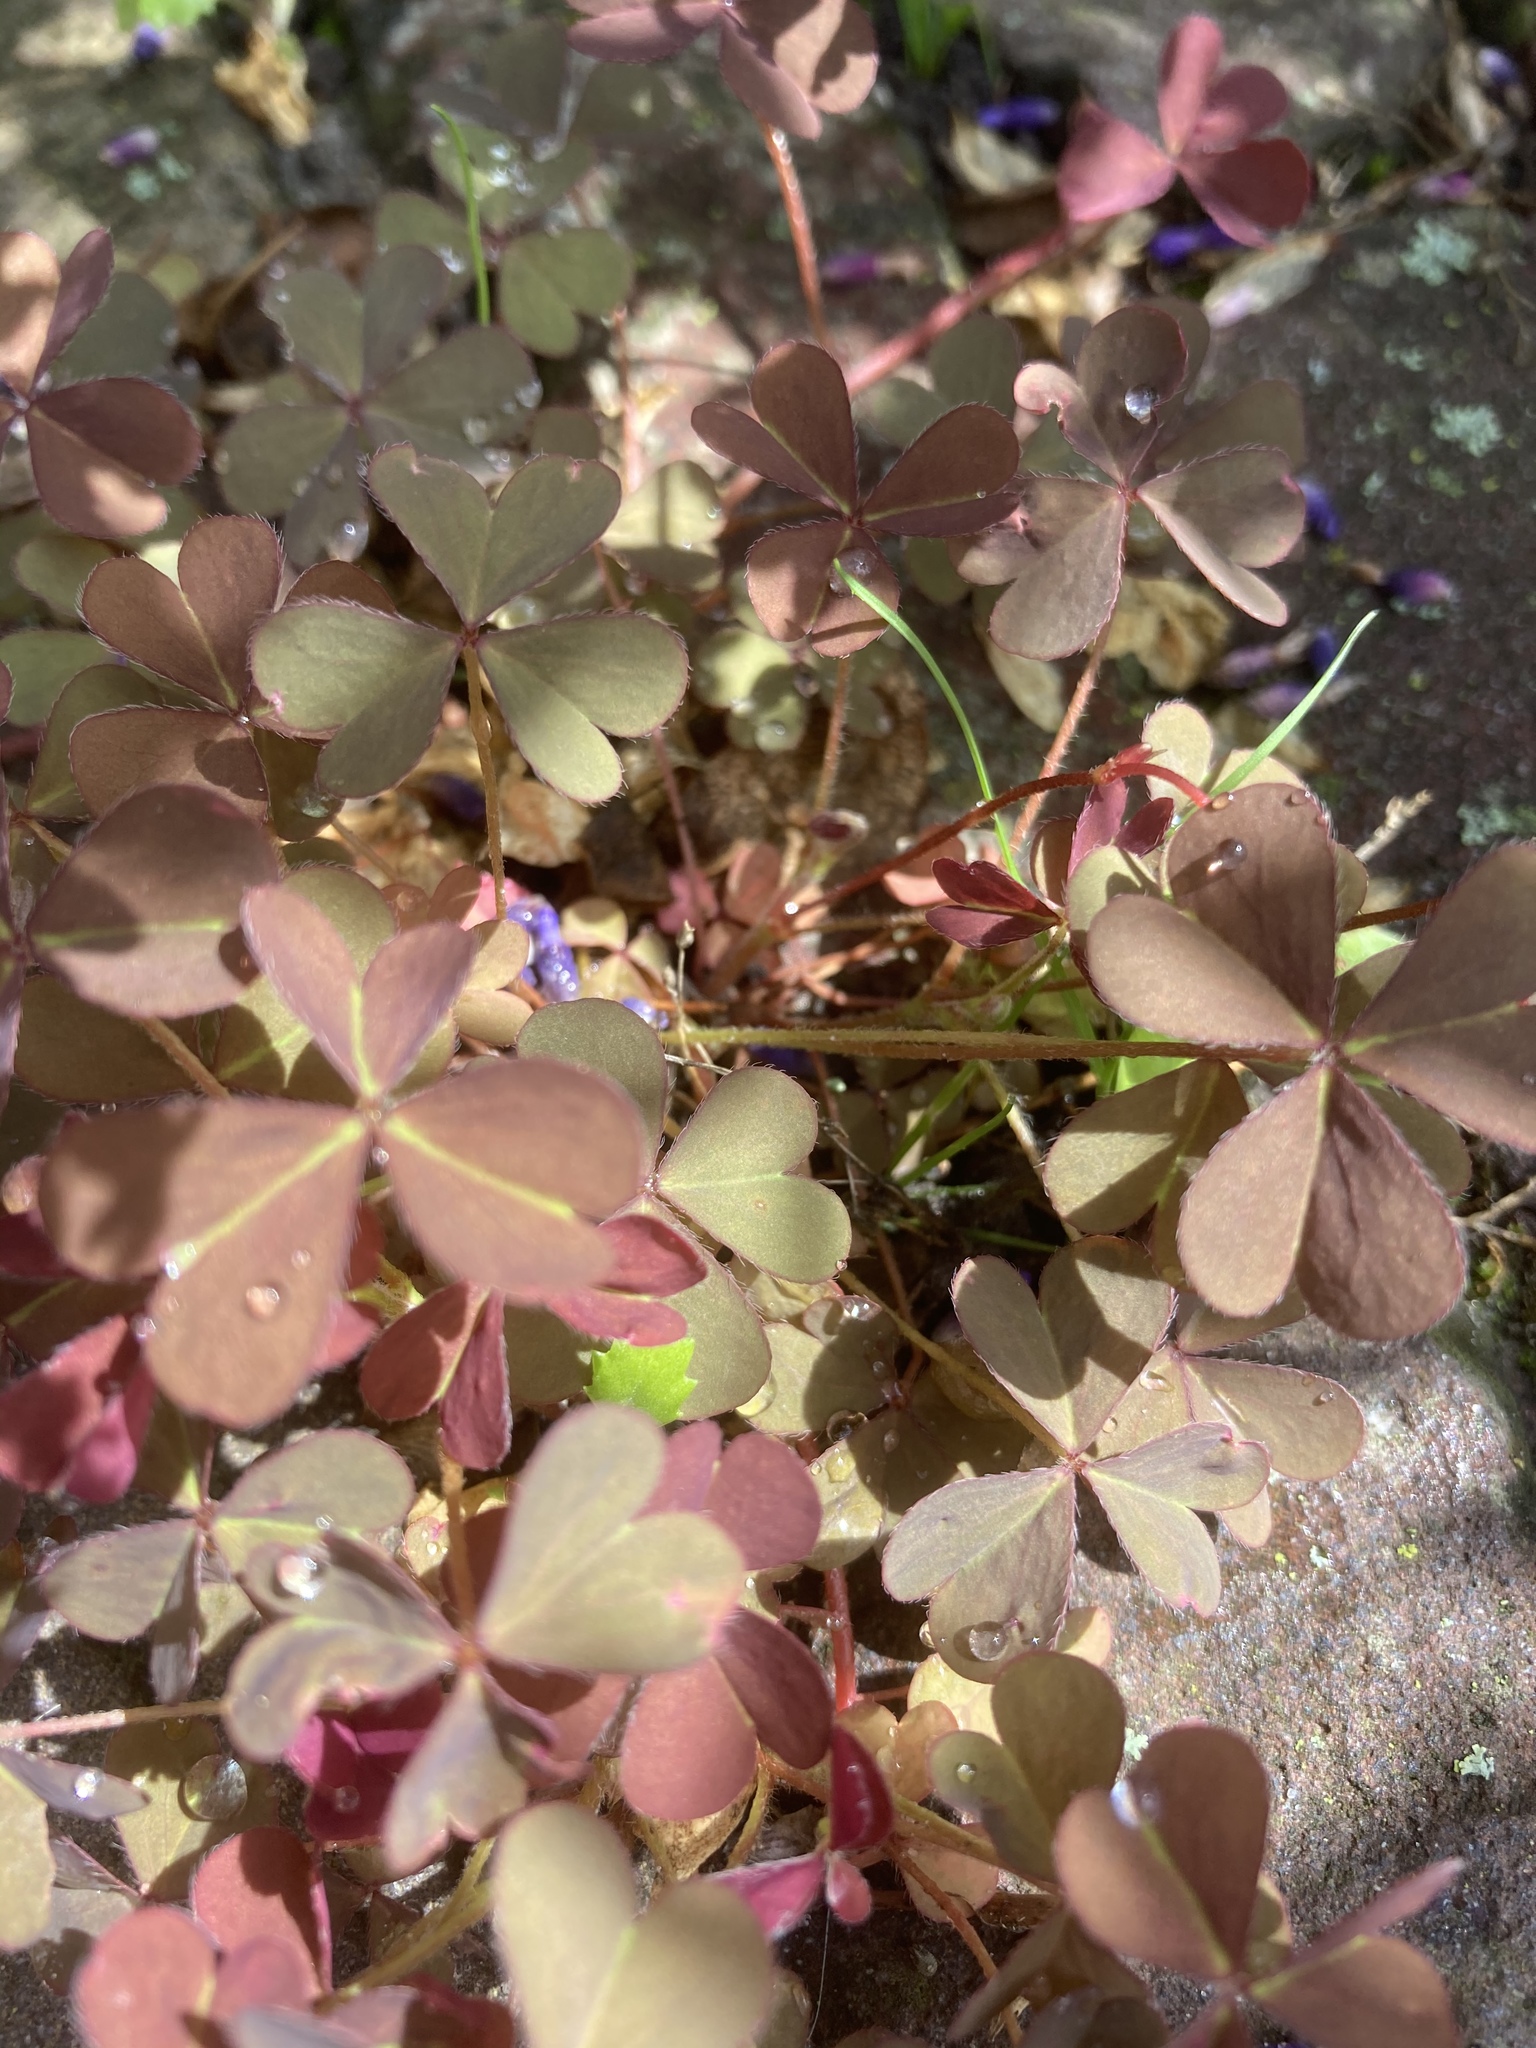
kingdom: Plantae
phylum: Tracheophyta
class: Magnoliopsida
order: Oxalidales
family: Oxalidaceae
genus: Oxalis
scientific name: Oxalis corniculata
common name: Procumbent yellow-sorrel
